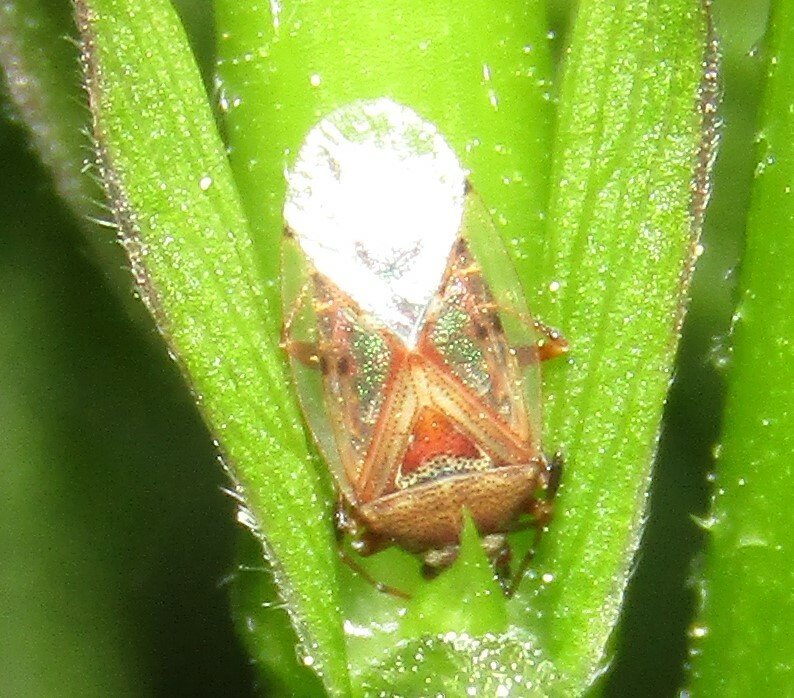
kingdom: Animalia
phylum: Arthropoda
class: Insecta
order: Hemiptera
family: Lygaeidae
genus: Kleidocerys
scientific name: Kleidocerys resedae
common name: Birch catkin bug
